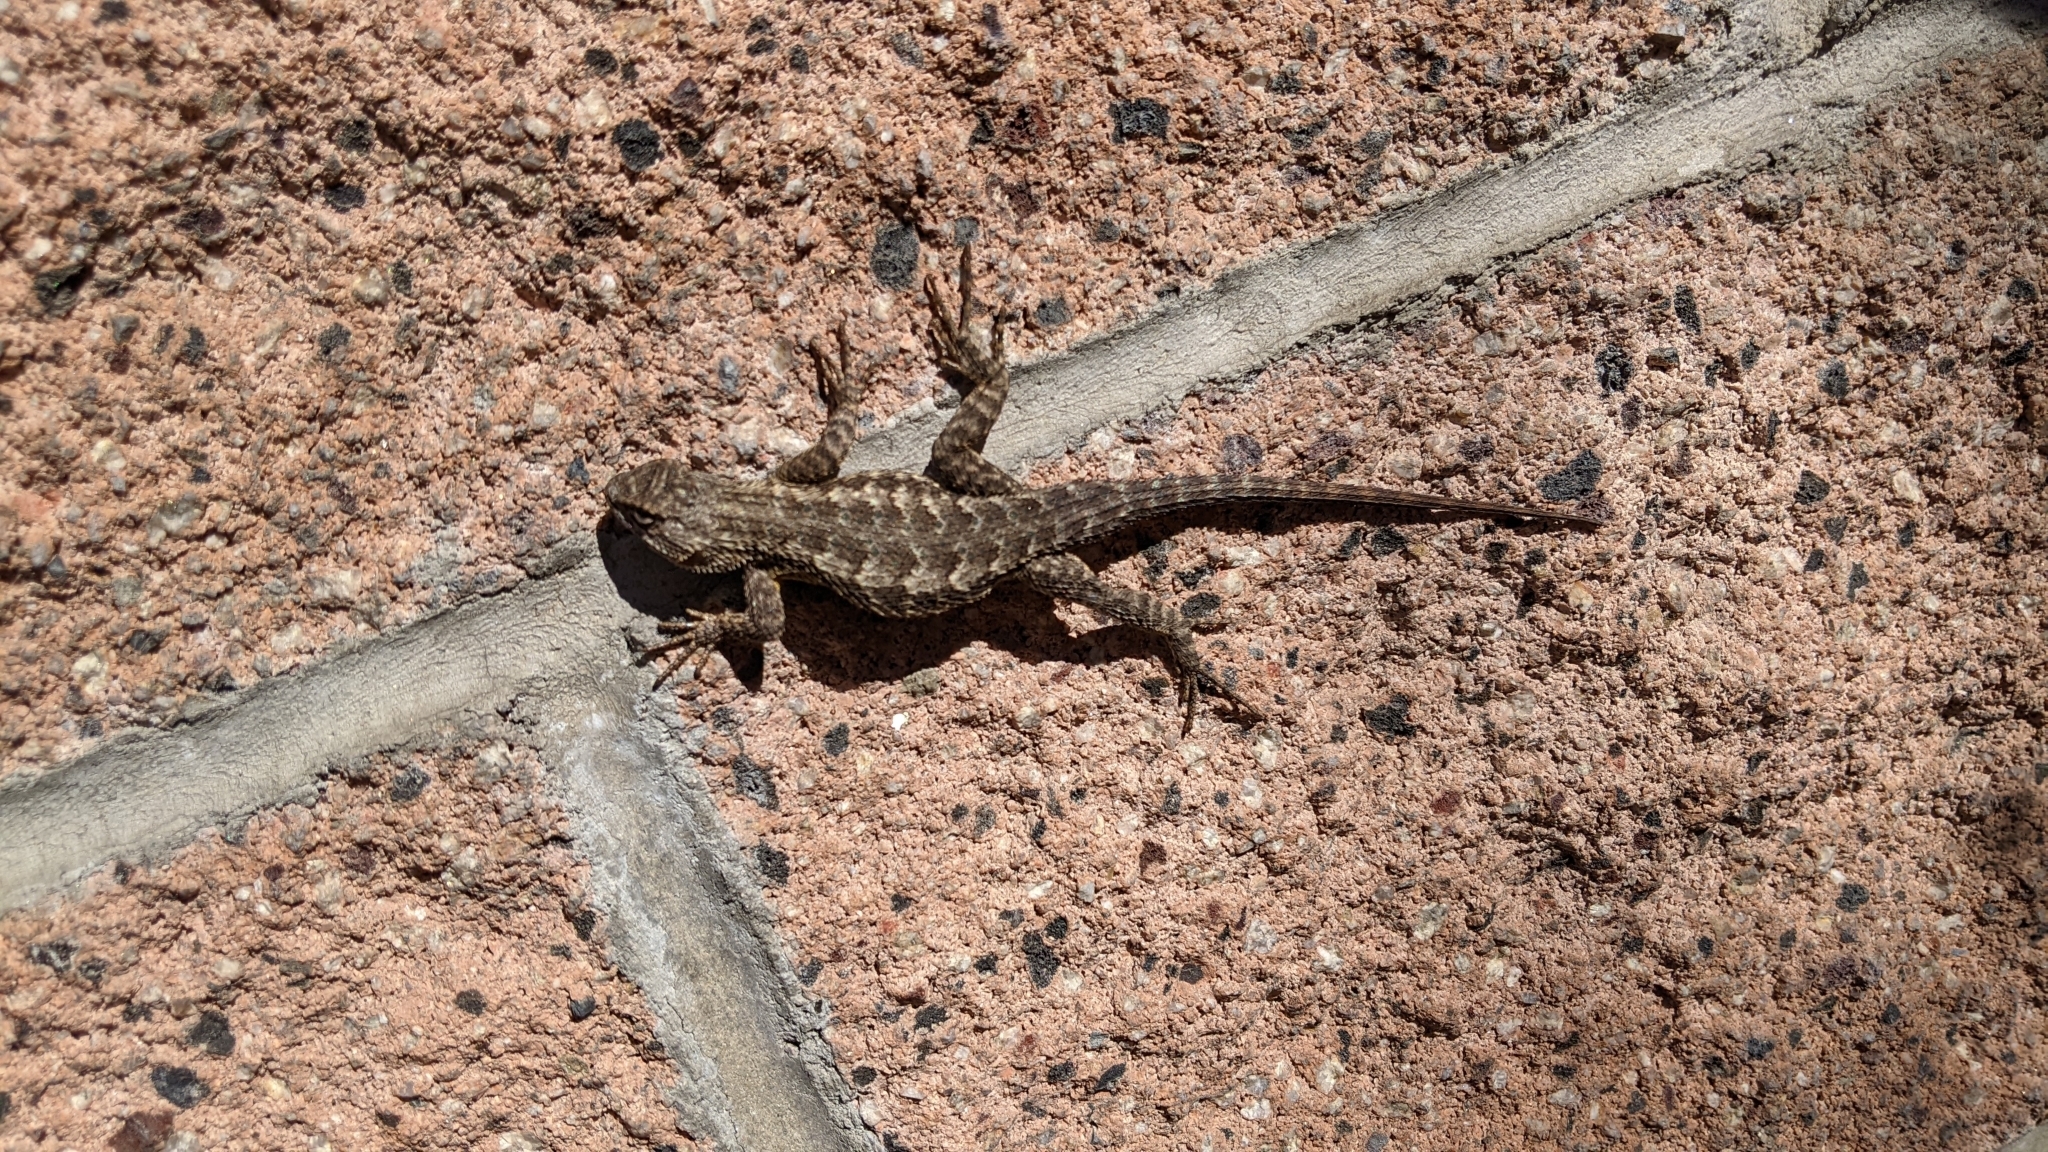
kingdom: Animalia
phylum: Chordata
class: Squamata
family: Phrynosomatidae
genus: Sceloporus
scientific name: Sceloporus occidentalis
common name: Western fence lizard
